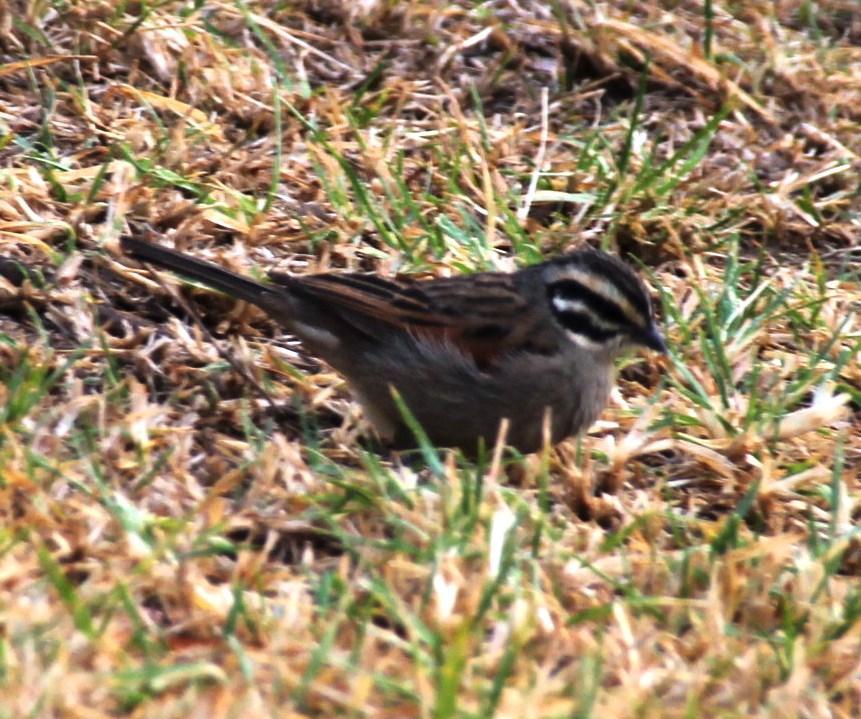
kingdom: Animalia
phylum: Chordata
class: Aves
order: Passeriformes
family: Emberizidae
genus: Emberiza
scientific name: Emberiza capensis
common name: Cape bunting
